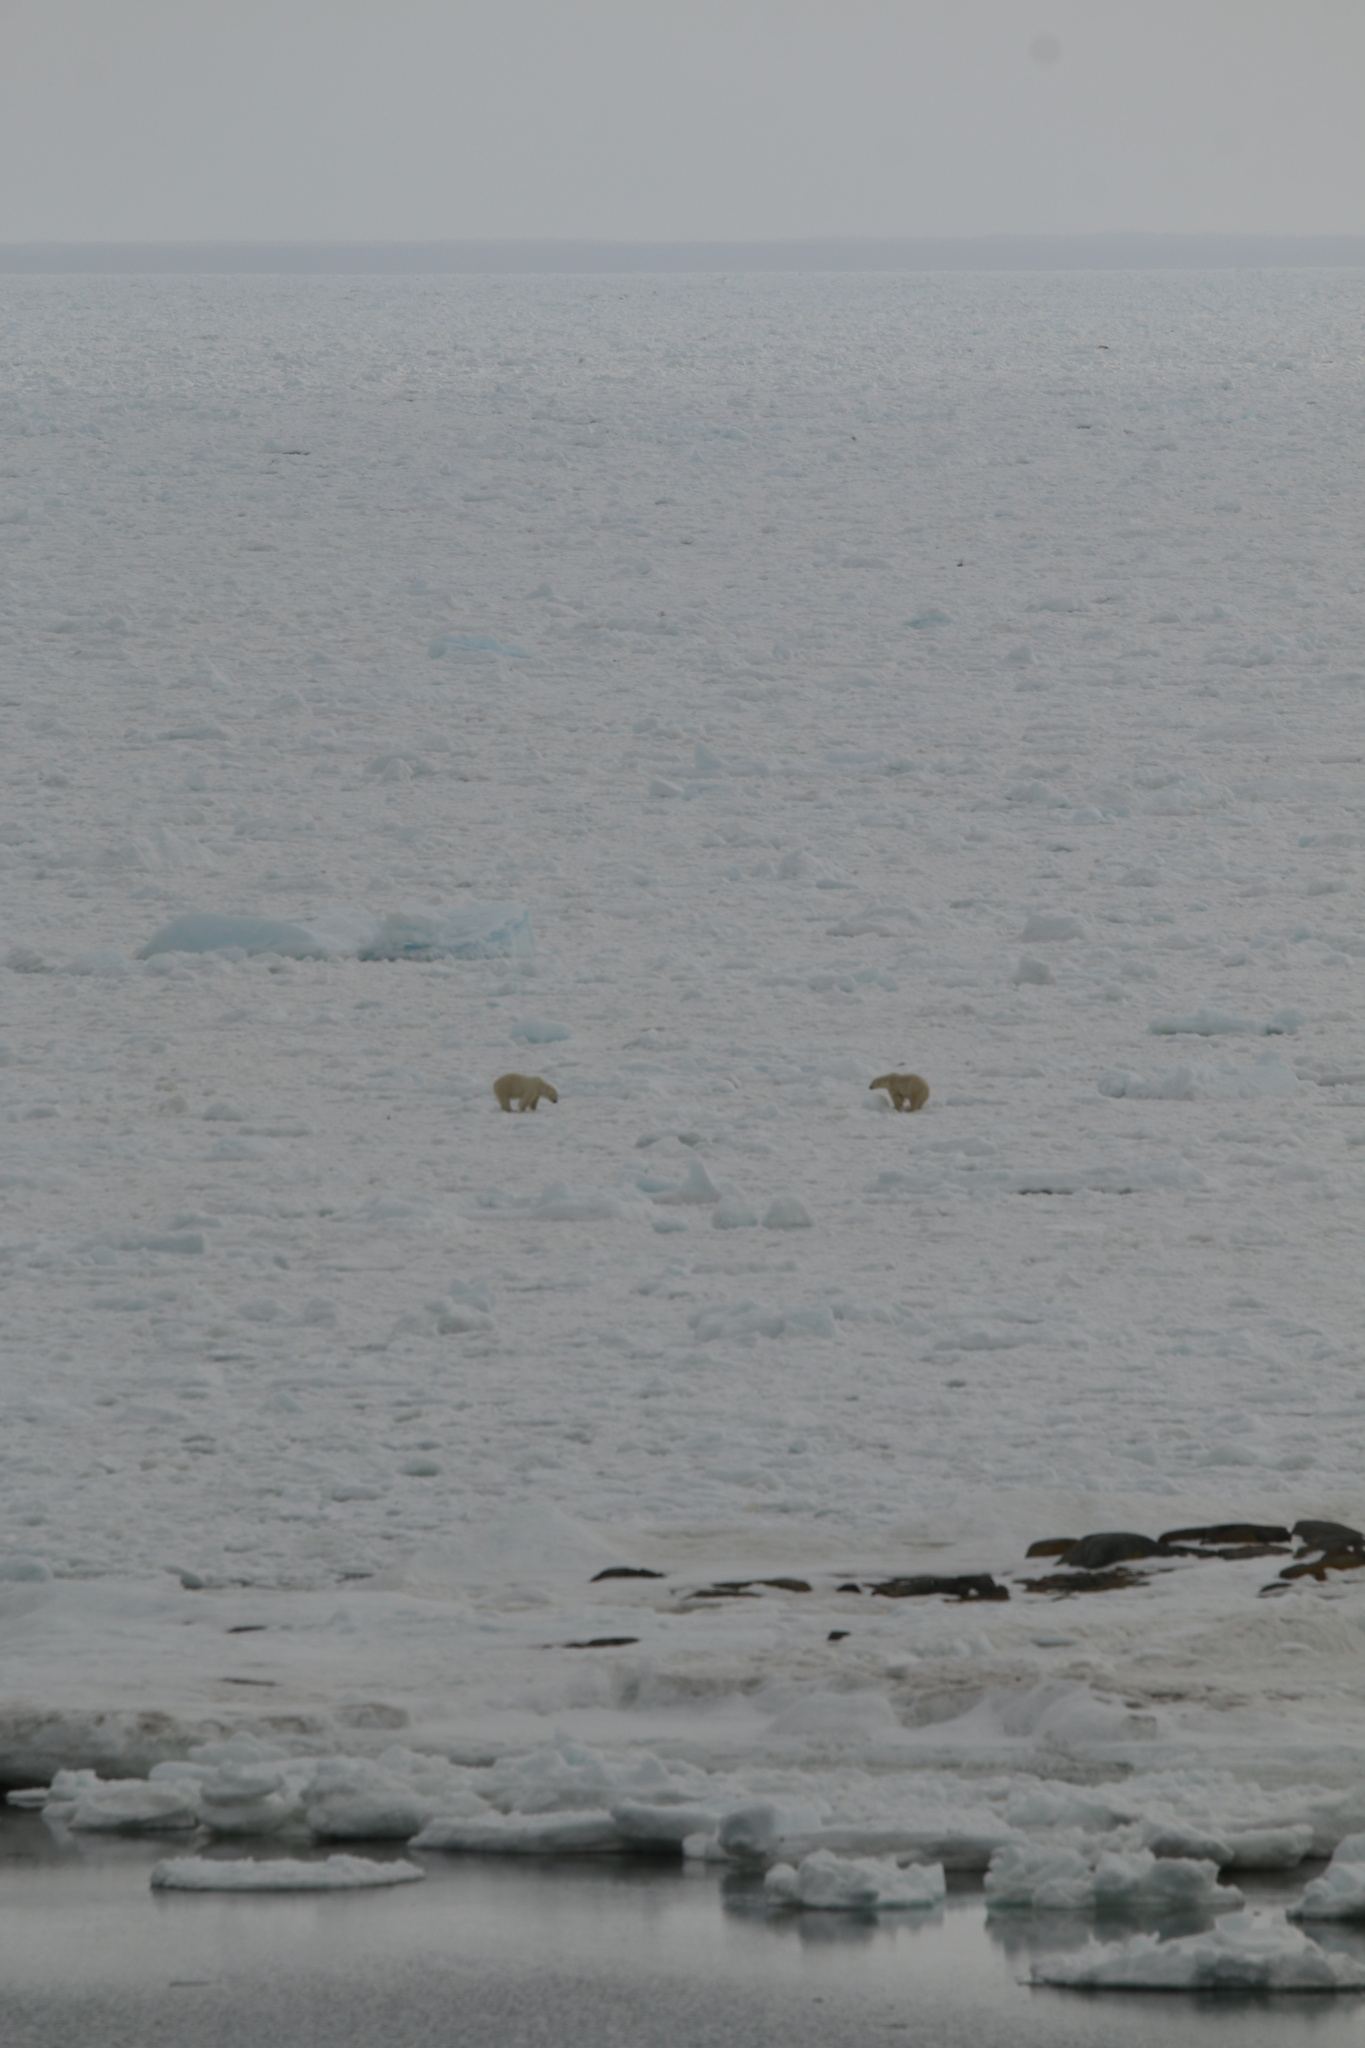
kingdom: Animalia
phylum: Chordata
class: Mammalia
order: Carnivora
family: Ursidae
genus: Ursus
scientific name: Ursus maritimus
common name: Polar bear
